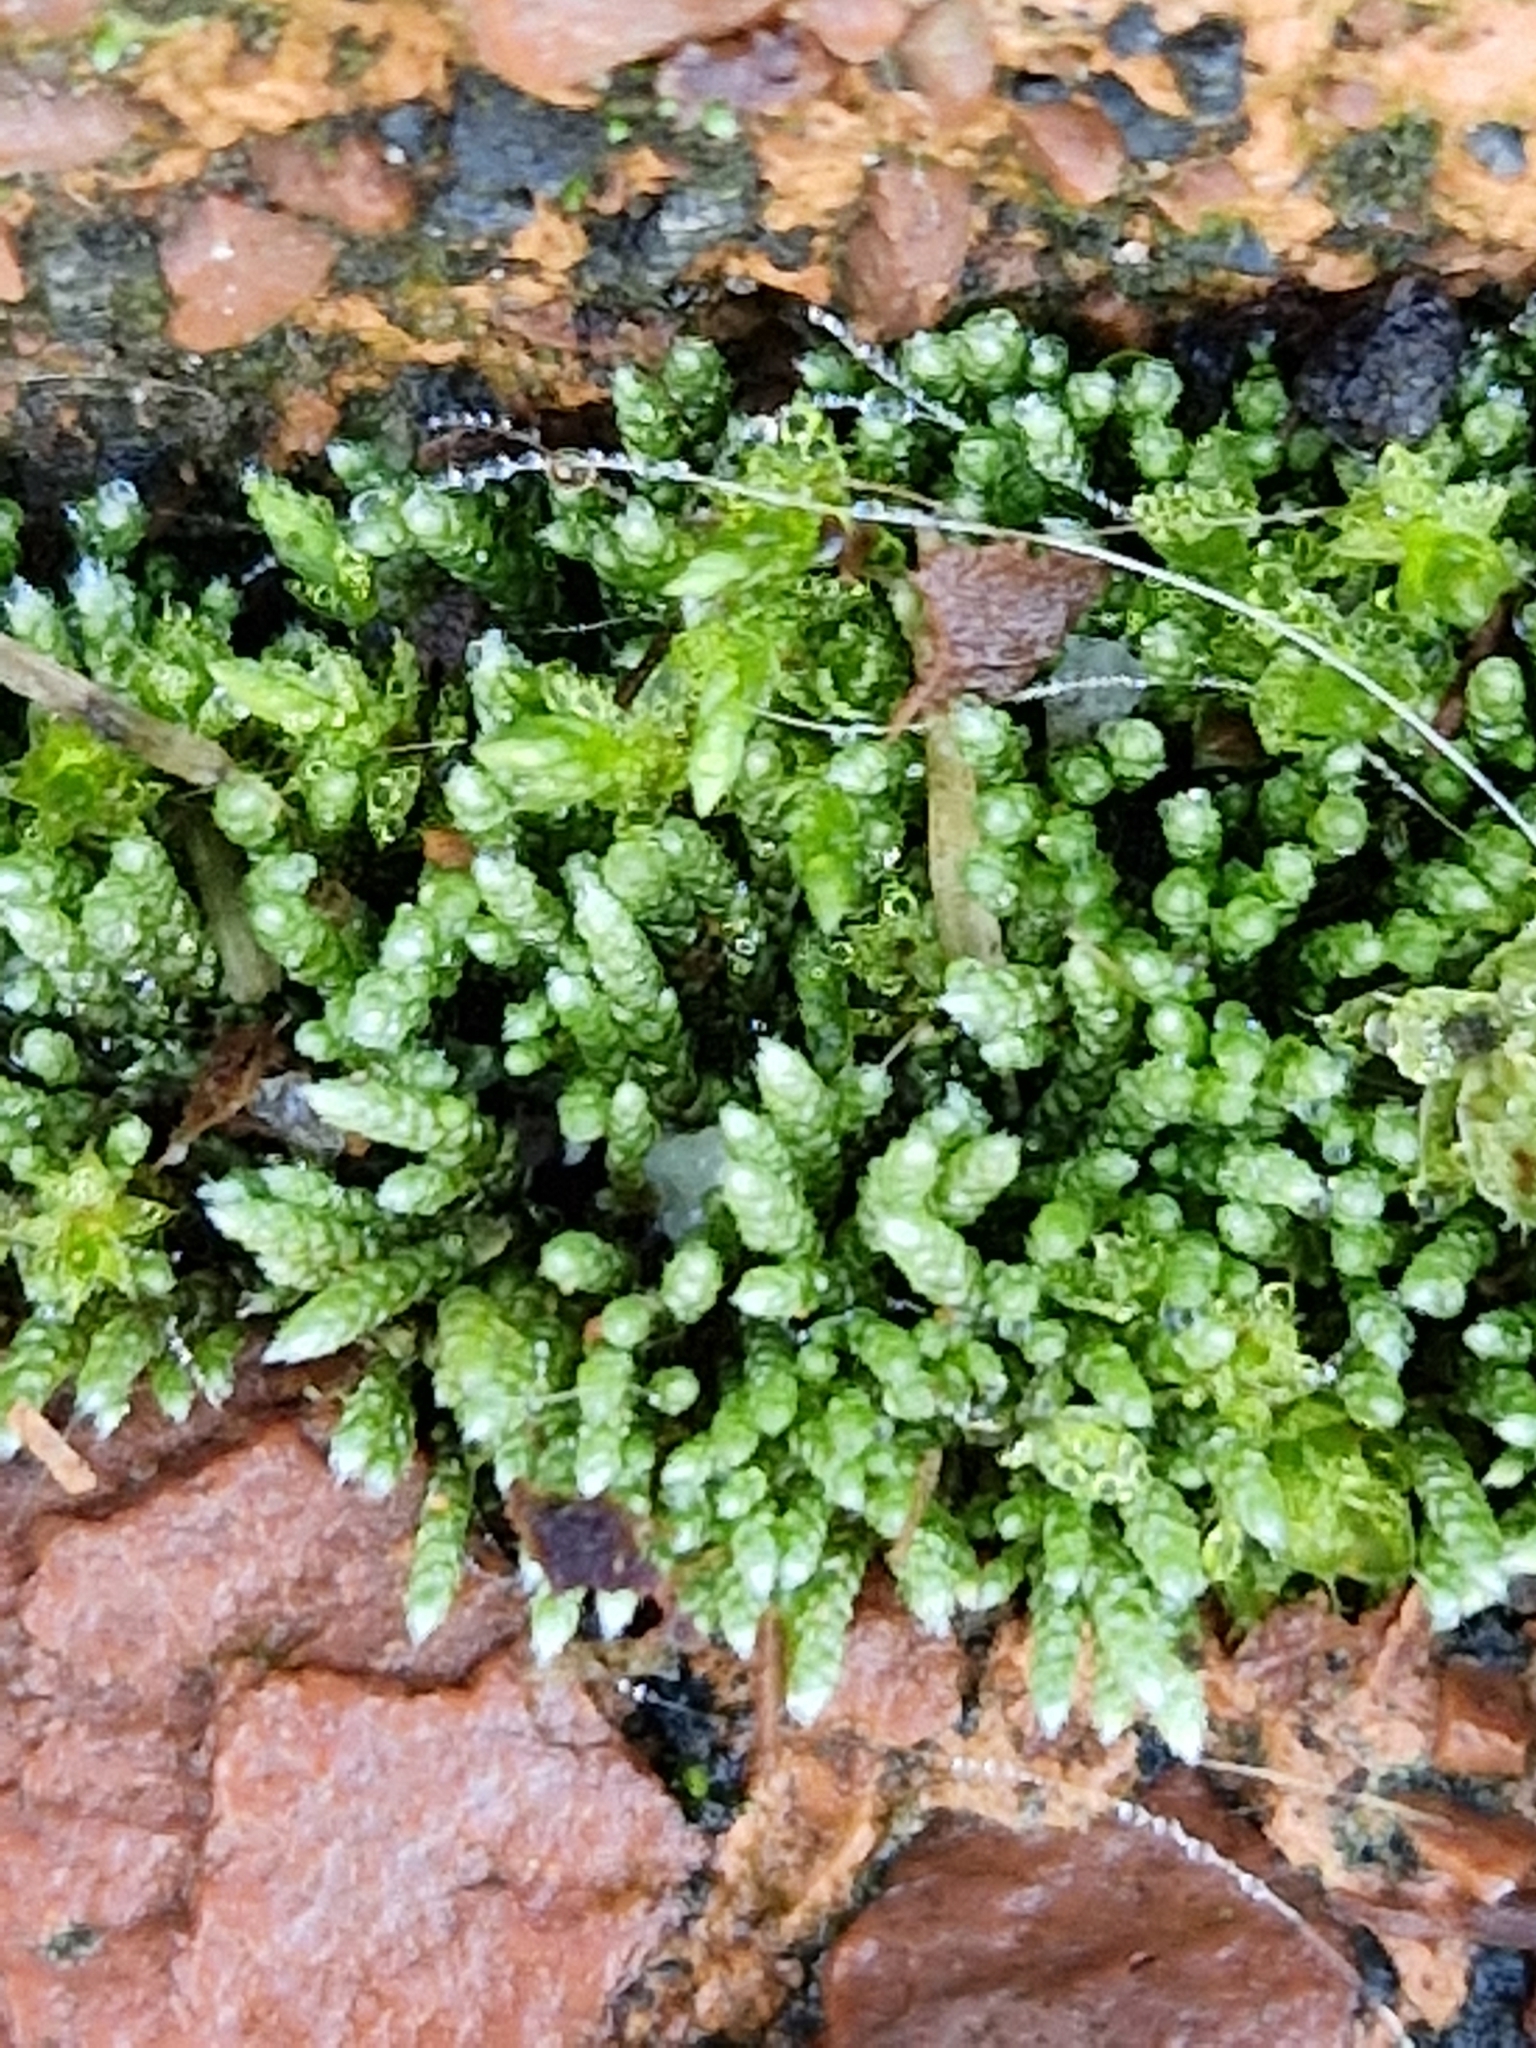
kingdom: Plantae
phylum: Bryophyta
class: Bryopsida
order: Bryales
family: Bryaceae
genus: Bryum
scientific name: Bryum argenteum
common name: Silver-moss
